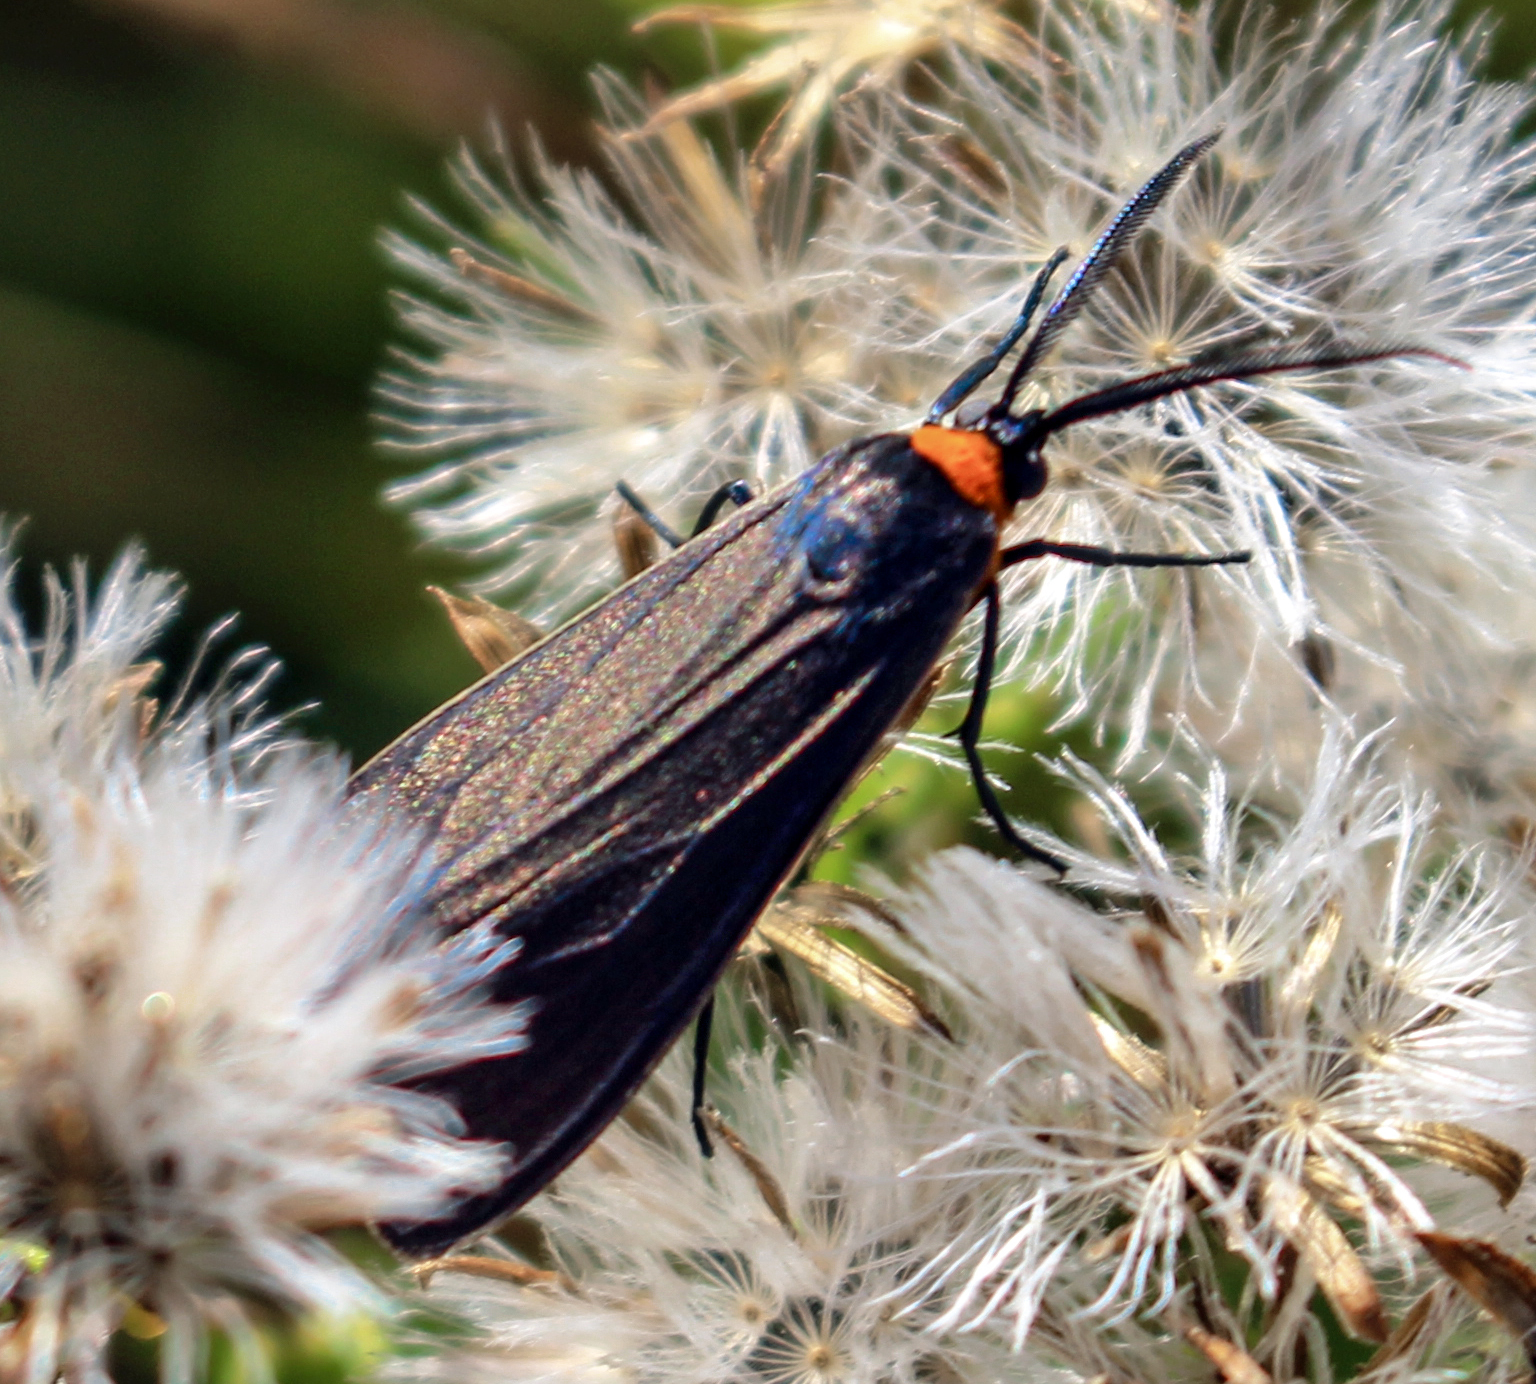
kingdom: Animalia
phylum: Arthropoda
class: Insecta
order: Lepidoptera
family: Erebidae
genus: Cisseps
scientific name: Cisseps fulvicollis
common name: Yellow-collared scape moth
